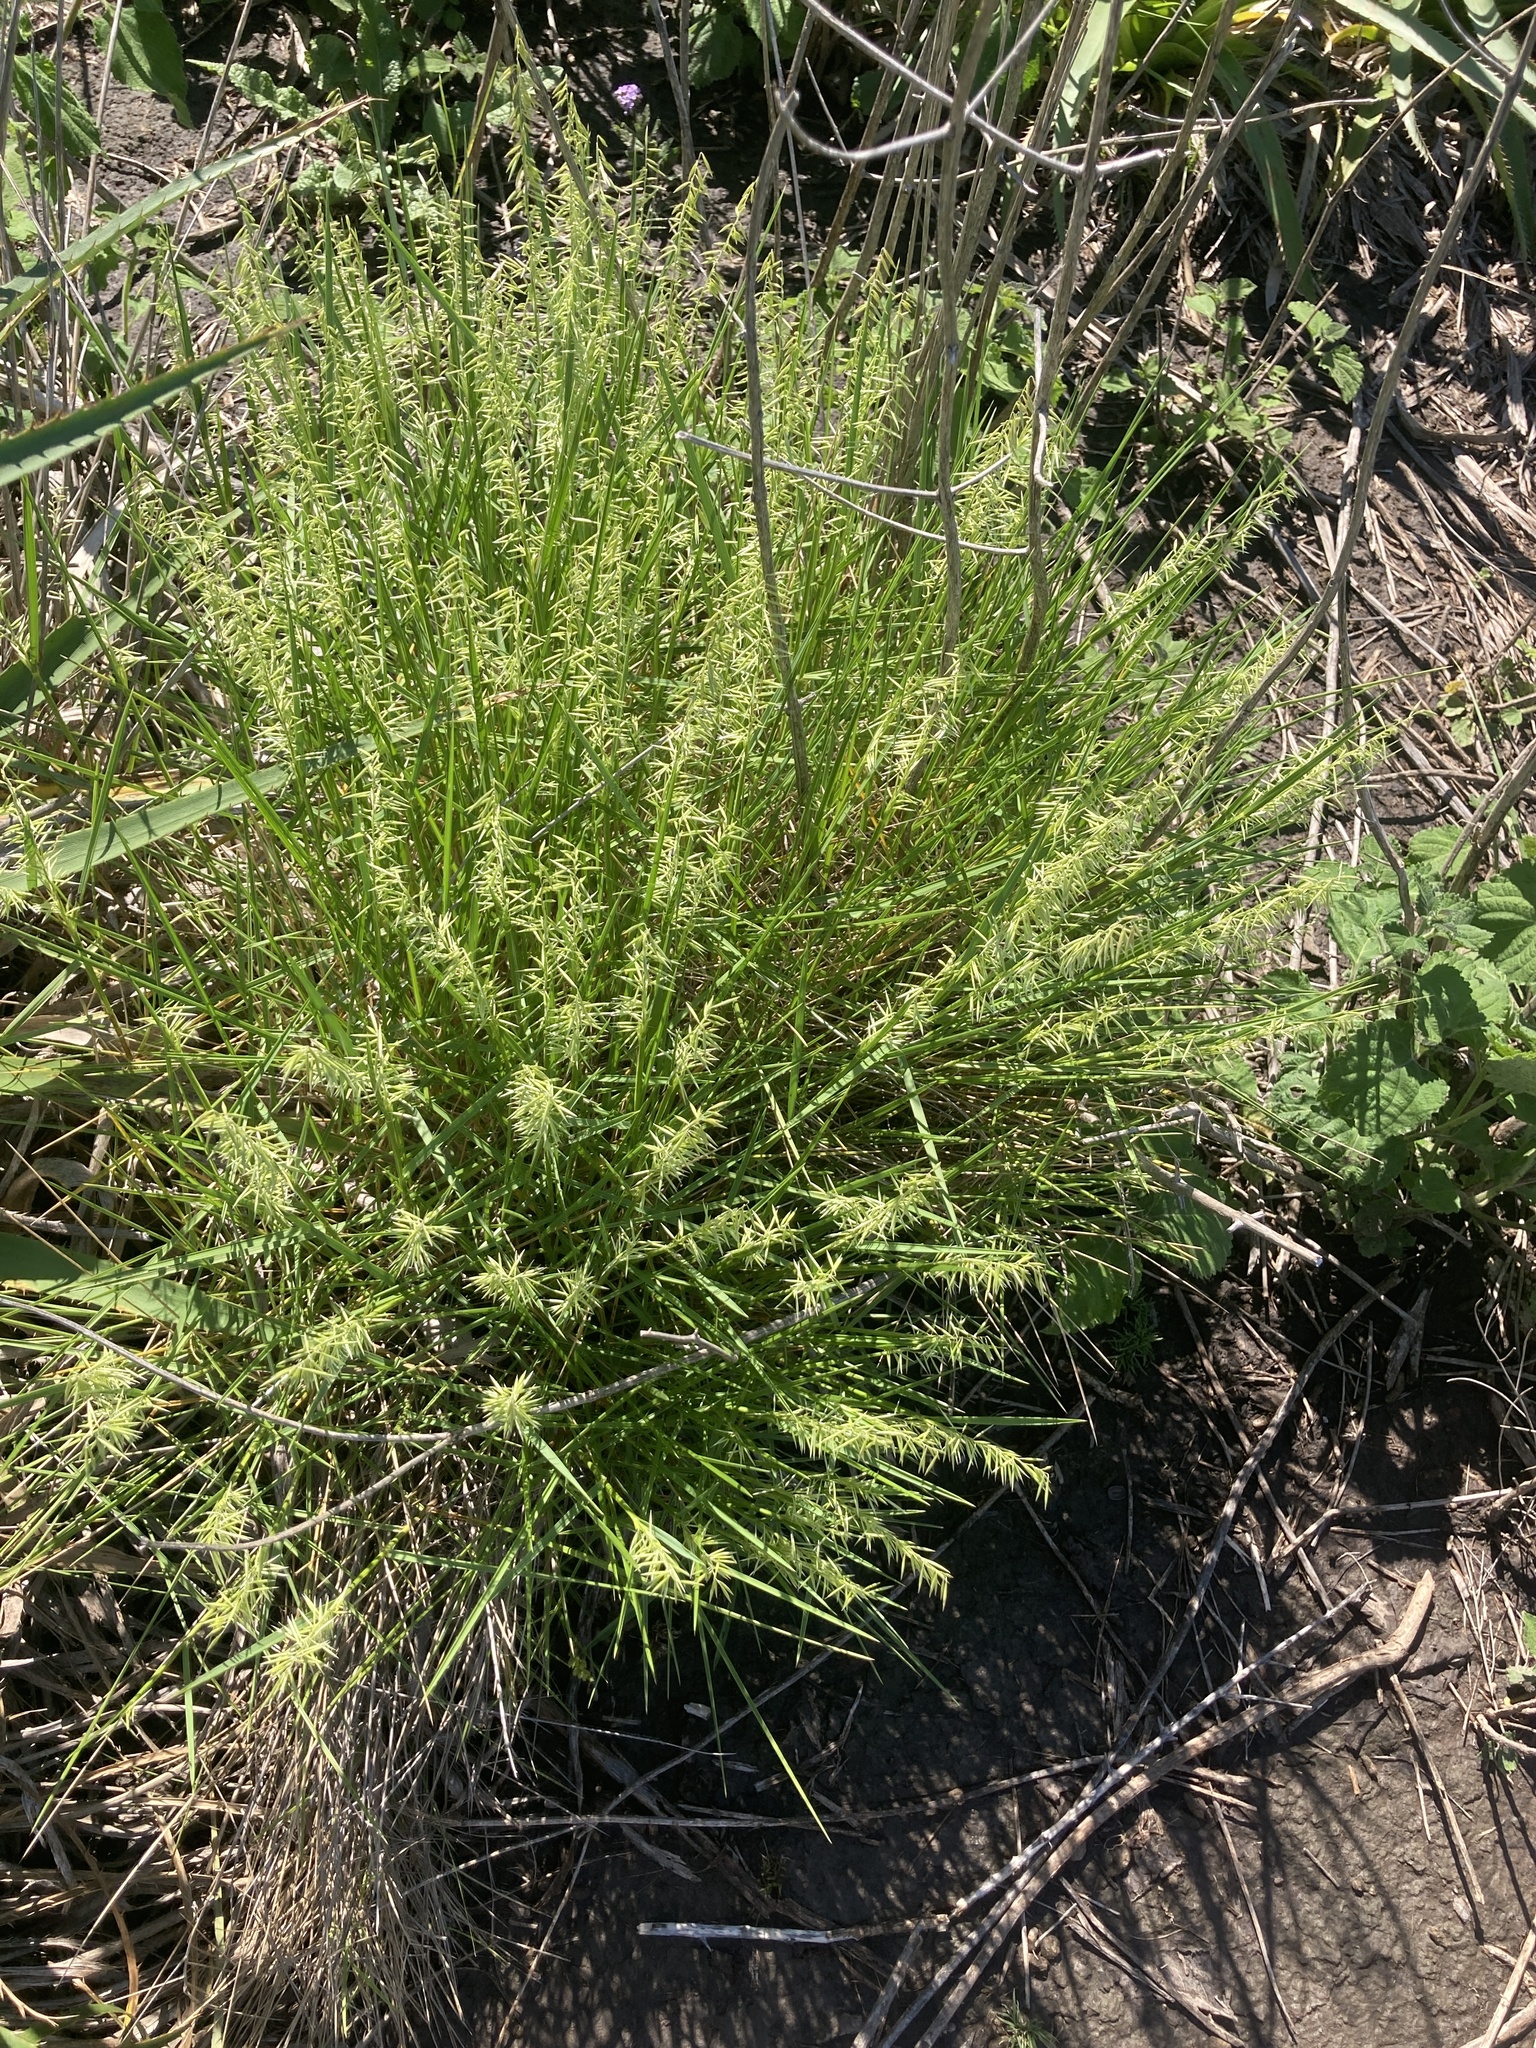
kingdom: Plantae
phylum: Tracheophyta
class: Liliopsida
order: Poales
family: Poaceae
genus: Melica
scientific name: Melica macra
